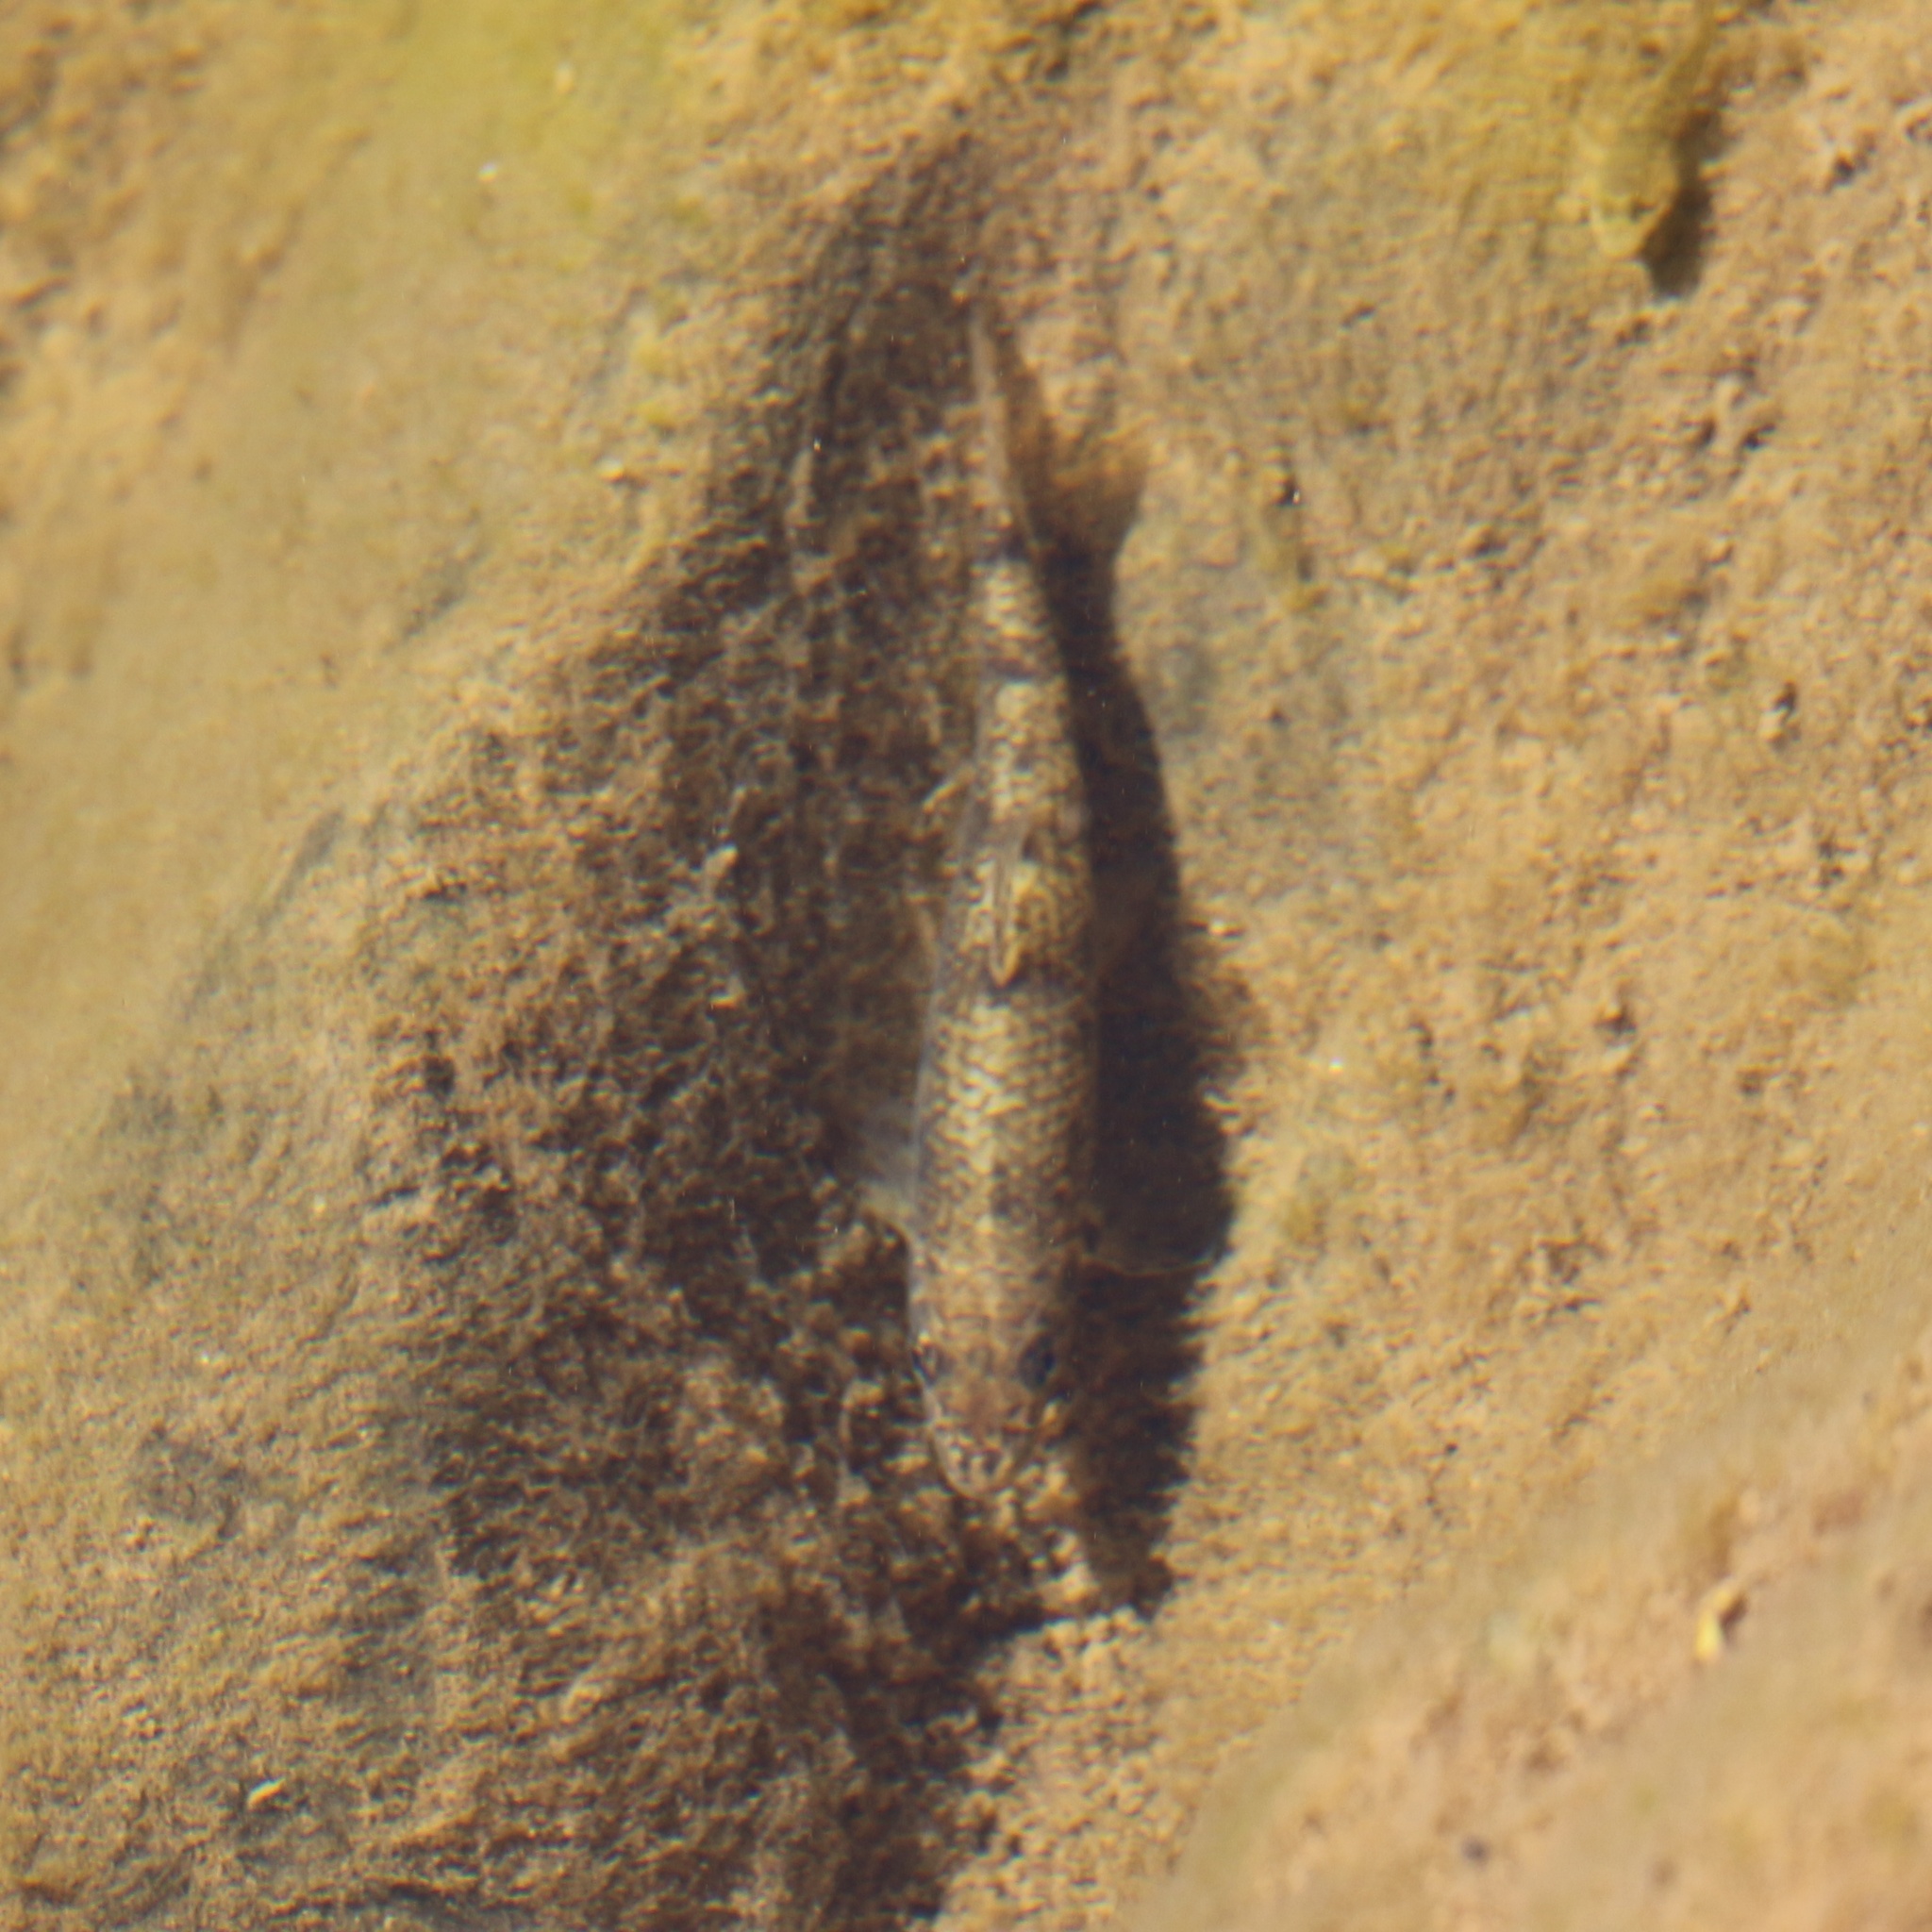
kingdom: Animalia
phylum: Chordata
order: Cypriniformes
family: Cyprinidae
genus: Gobio
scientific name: Gobio caucasicus
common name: Colchic gudgeon
